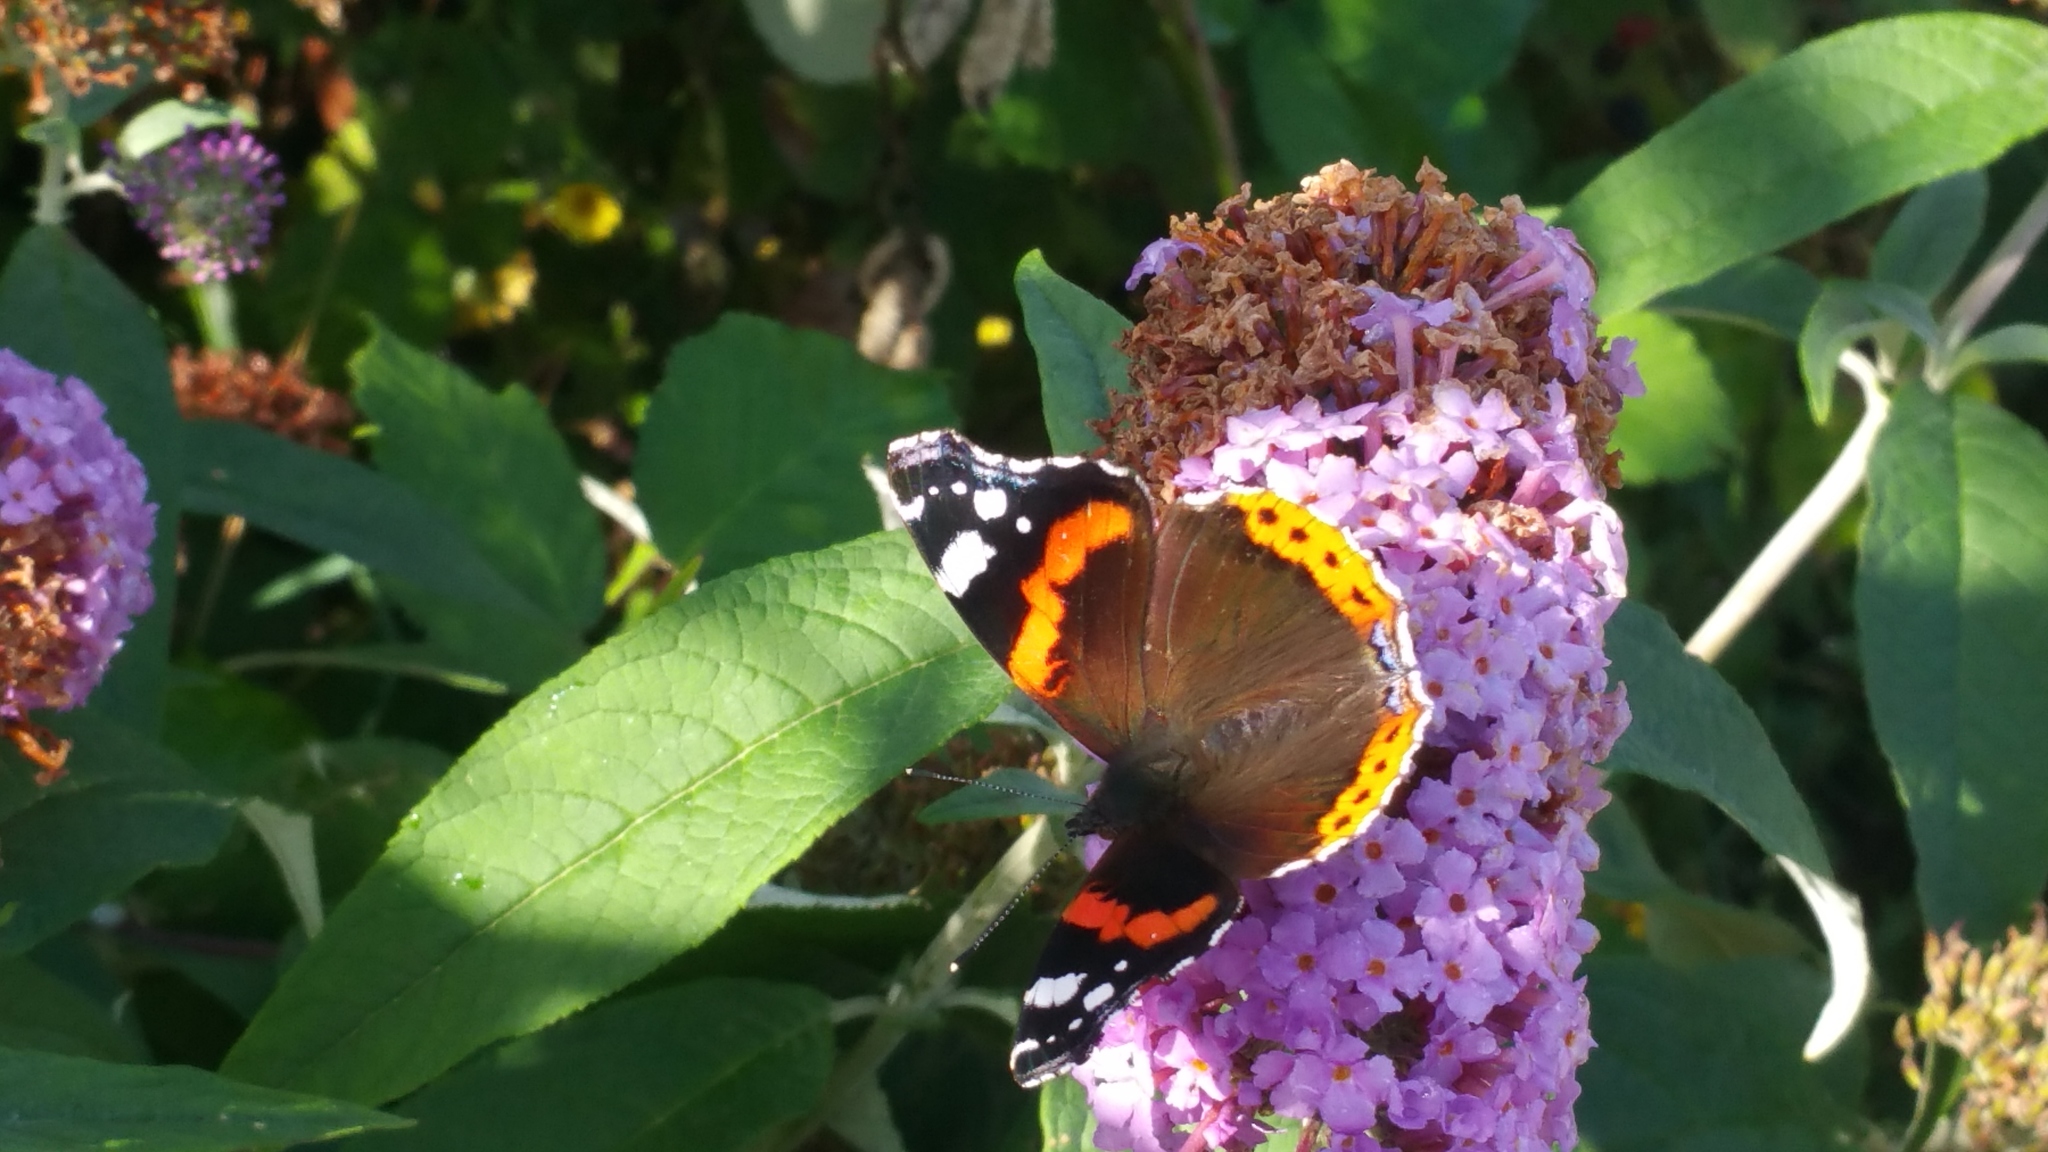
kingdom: Animalia
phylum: Arthropoda
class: Insecta
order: Lepidoptera
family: Nymphalidae
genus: Vanessa
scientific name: Vanessa atalanta
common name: Red admiral
